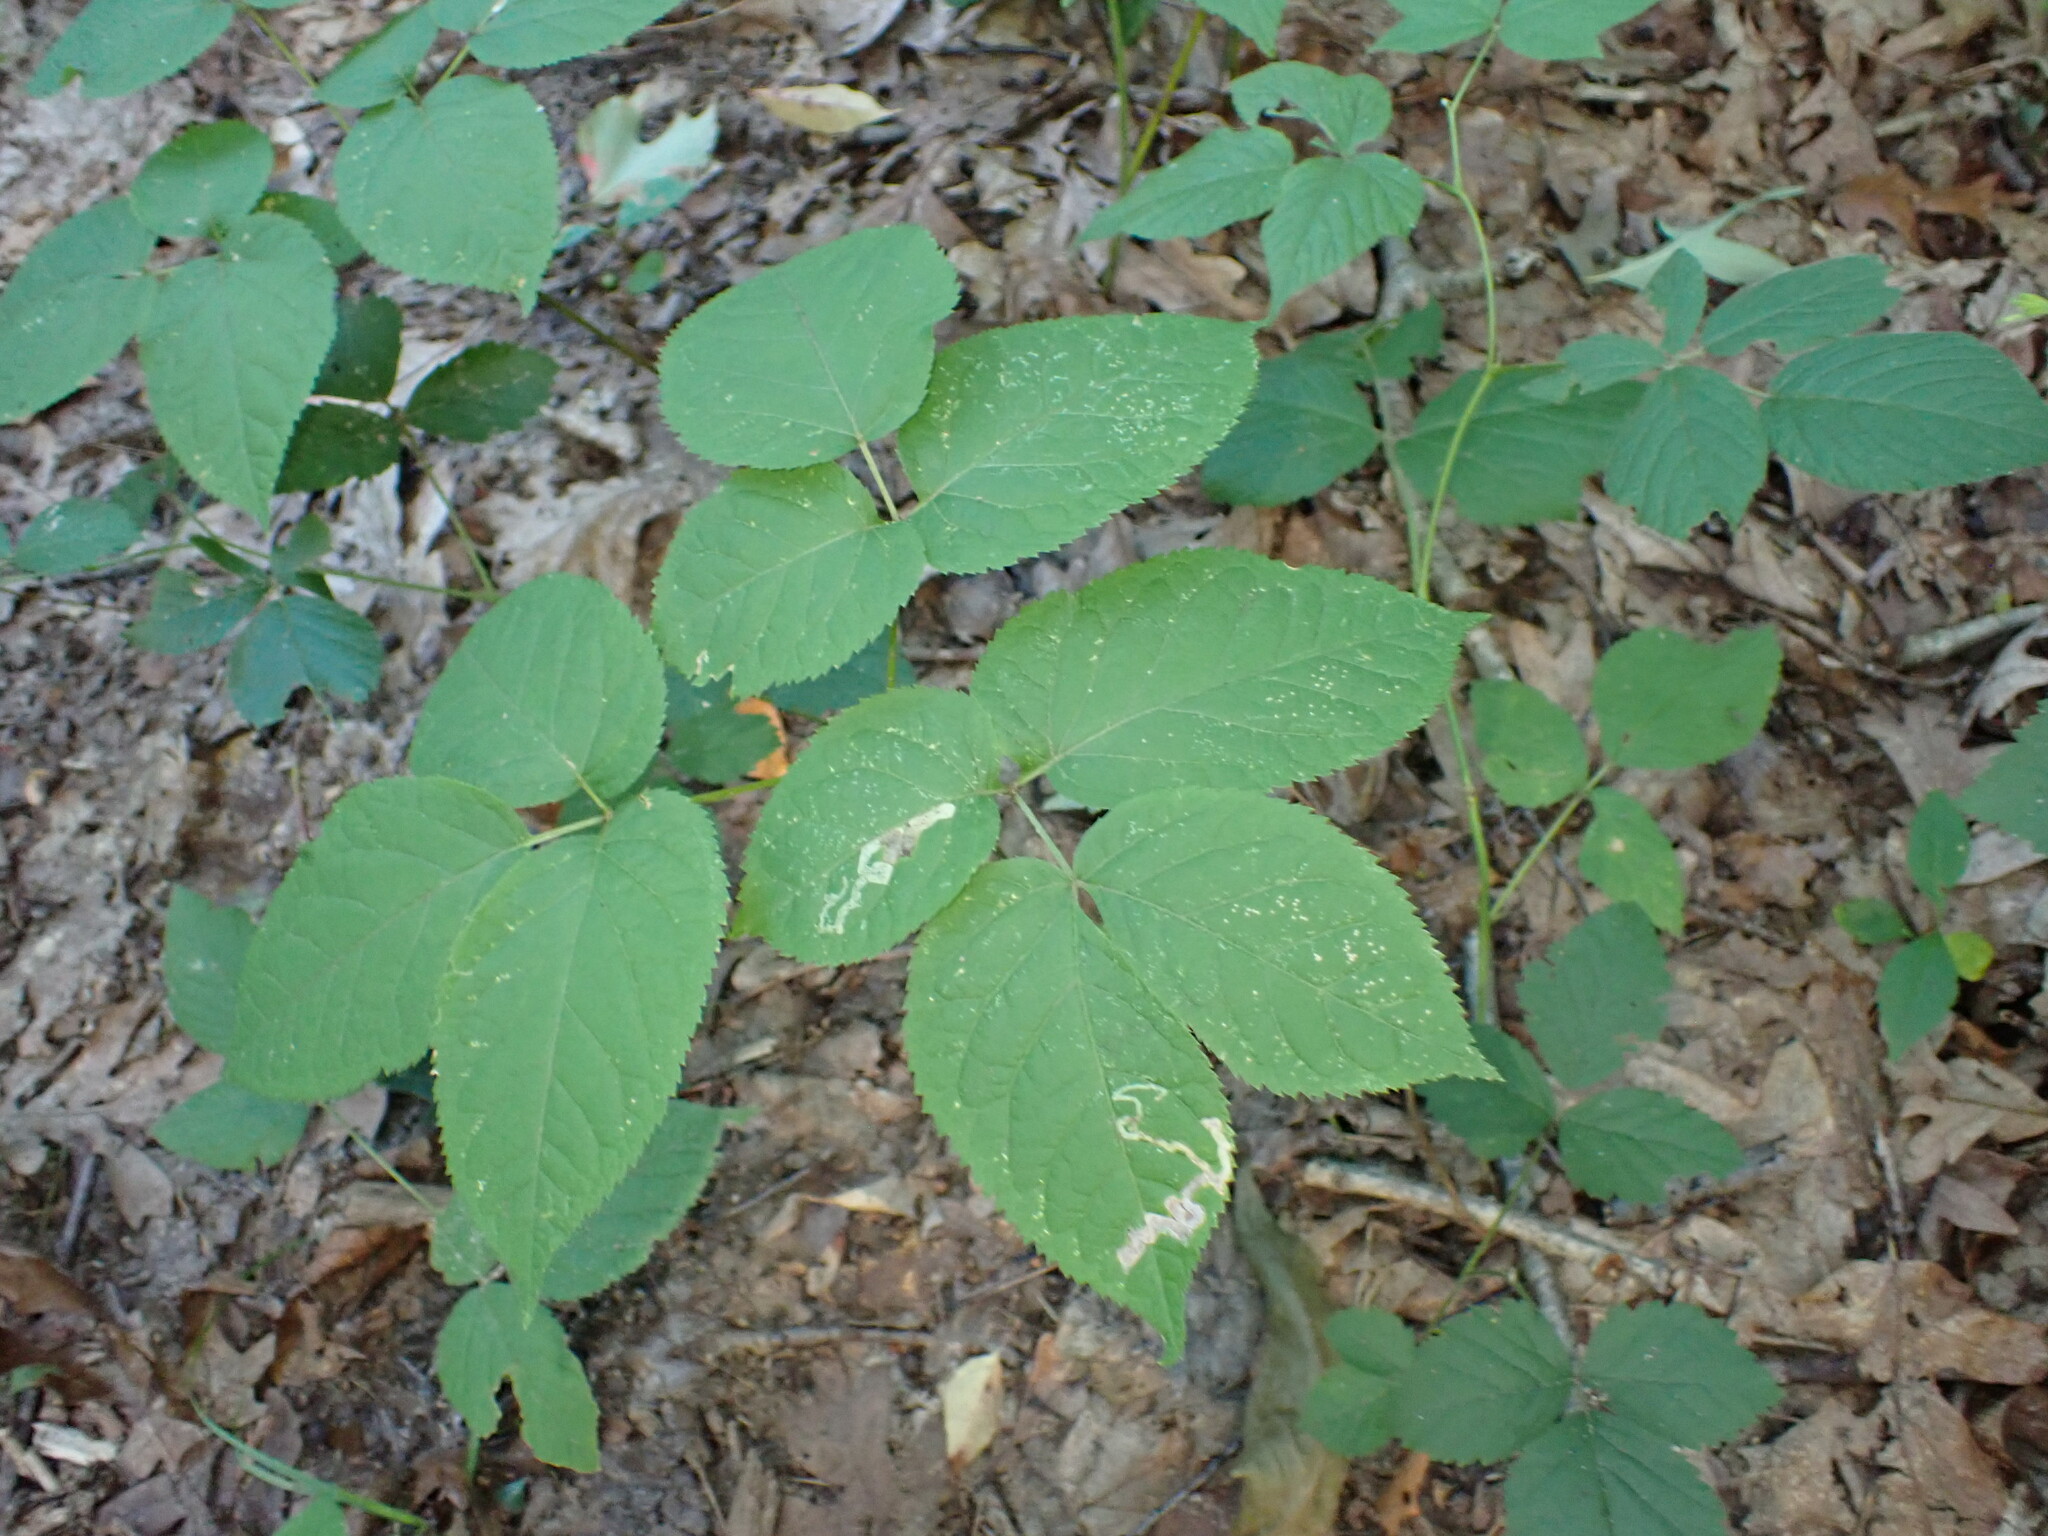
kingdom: Plantae
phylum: Tracheophyta
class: Magnoliopsida
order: Apiales
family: Araliaceae
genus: Aralia
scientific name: Aralia nudicaulis
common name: Wild sarsaparilla
